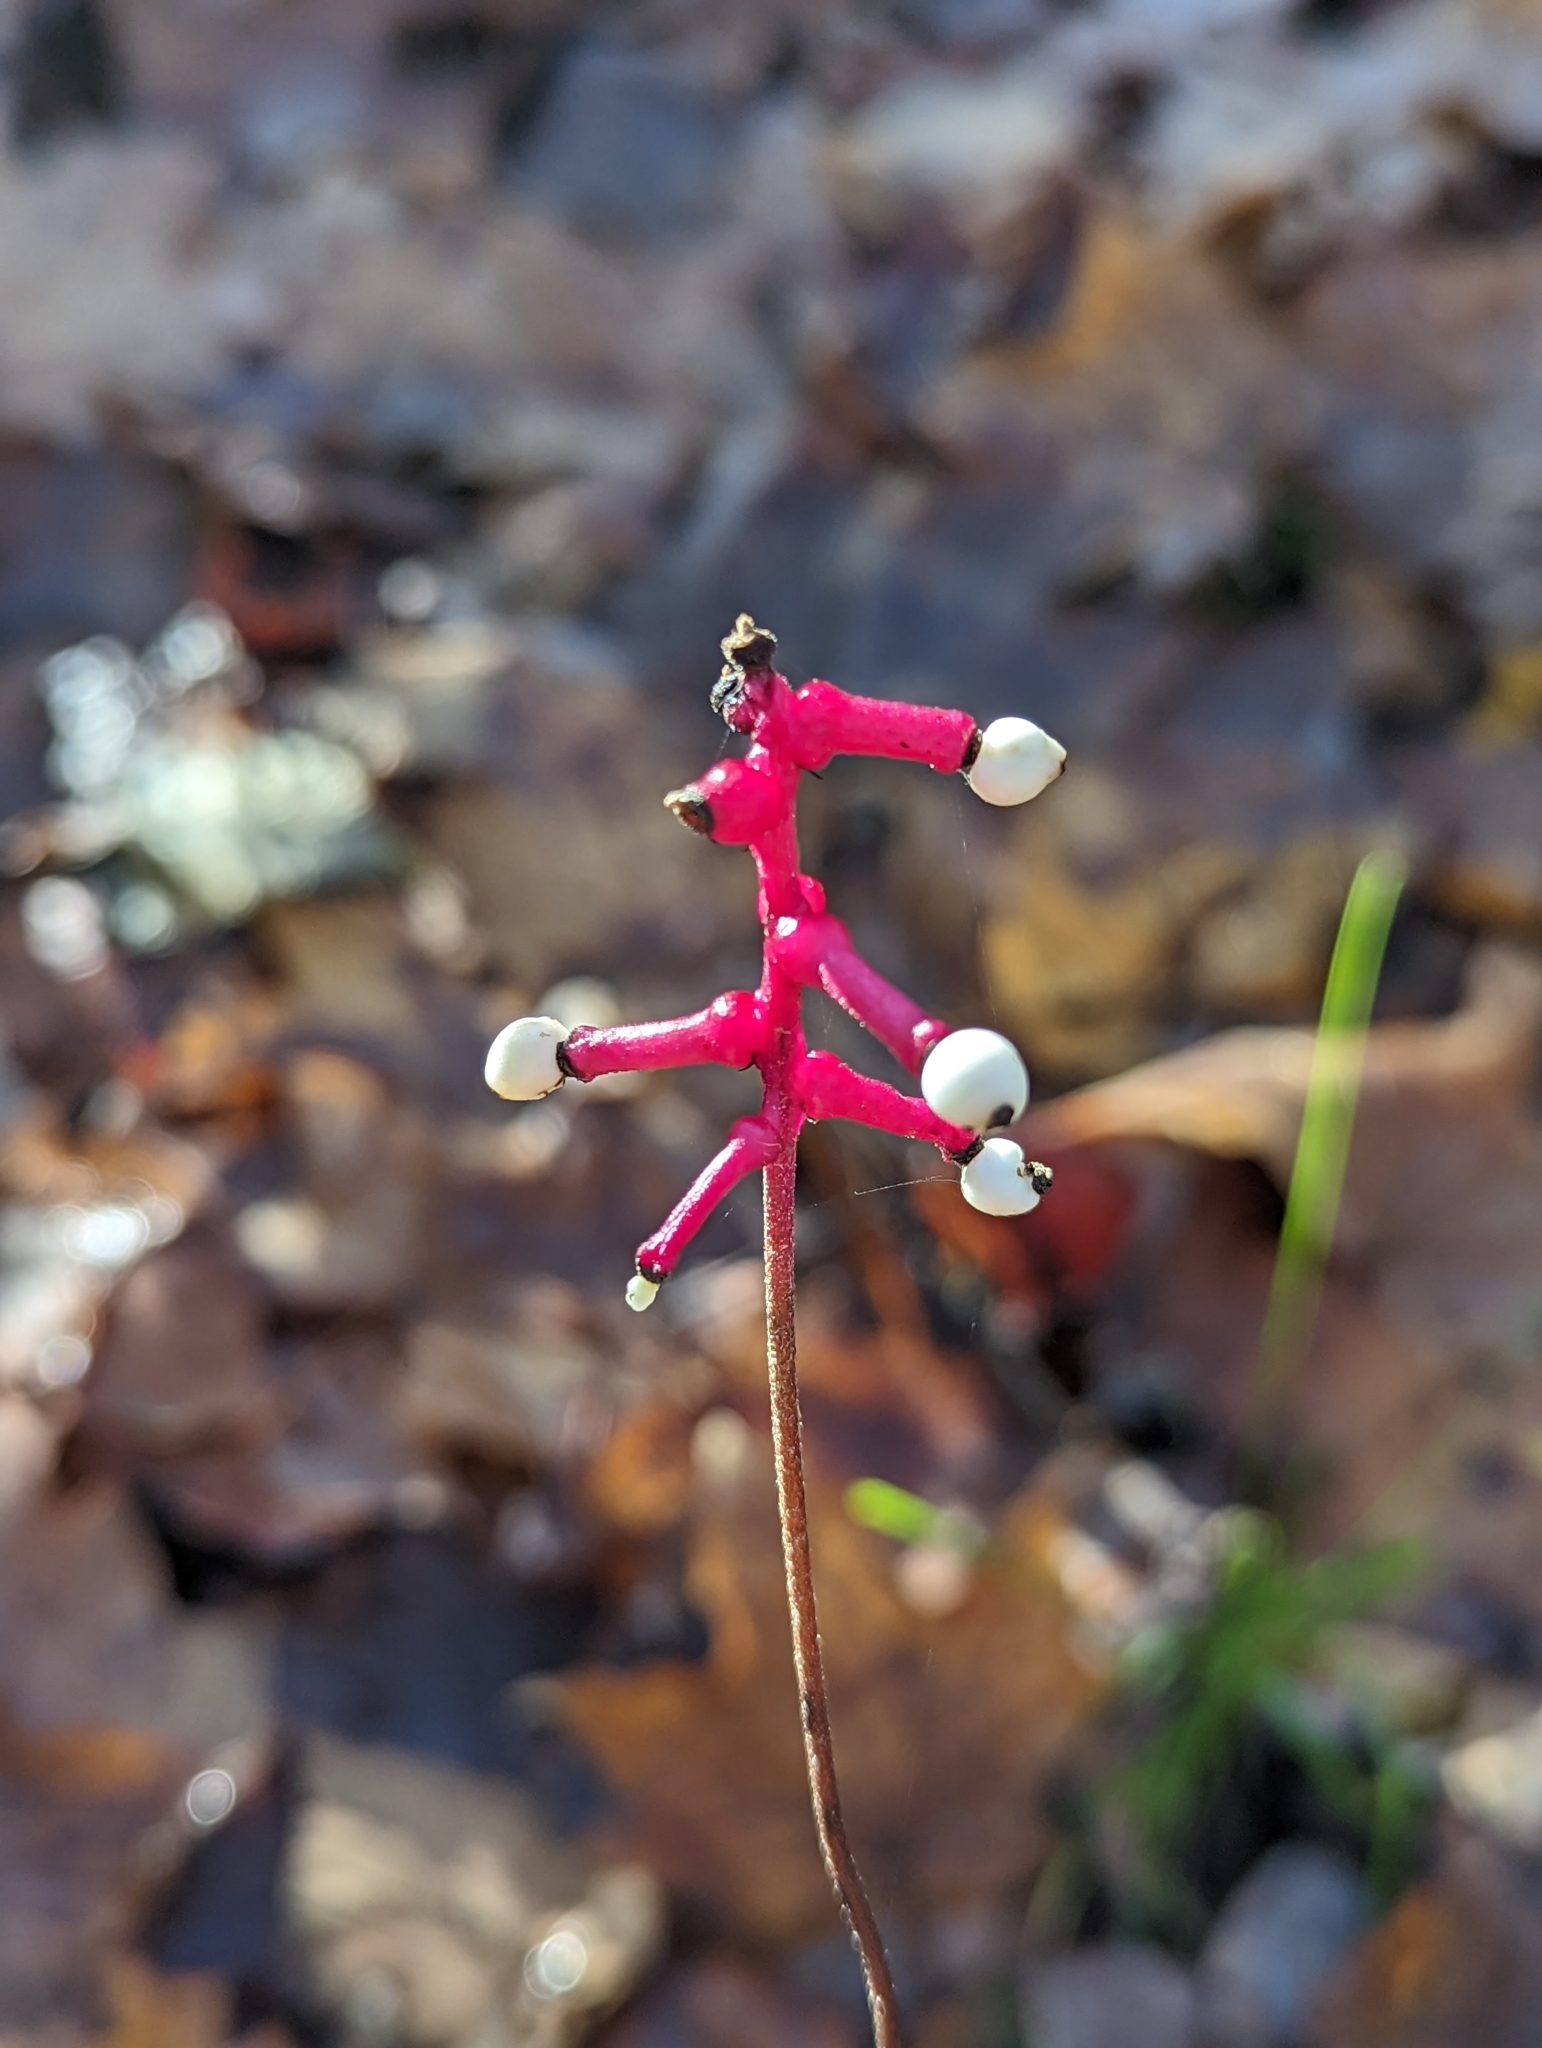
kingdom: Plantae
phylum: Tracheophyta
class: Magnoliopsida
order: Ranunculales
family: Ranunculaceae
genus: Actaea
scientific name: Actaea pachypoda
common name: Doll's-eyes
